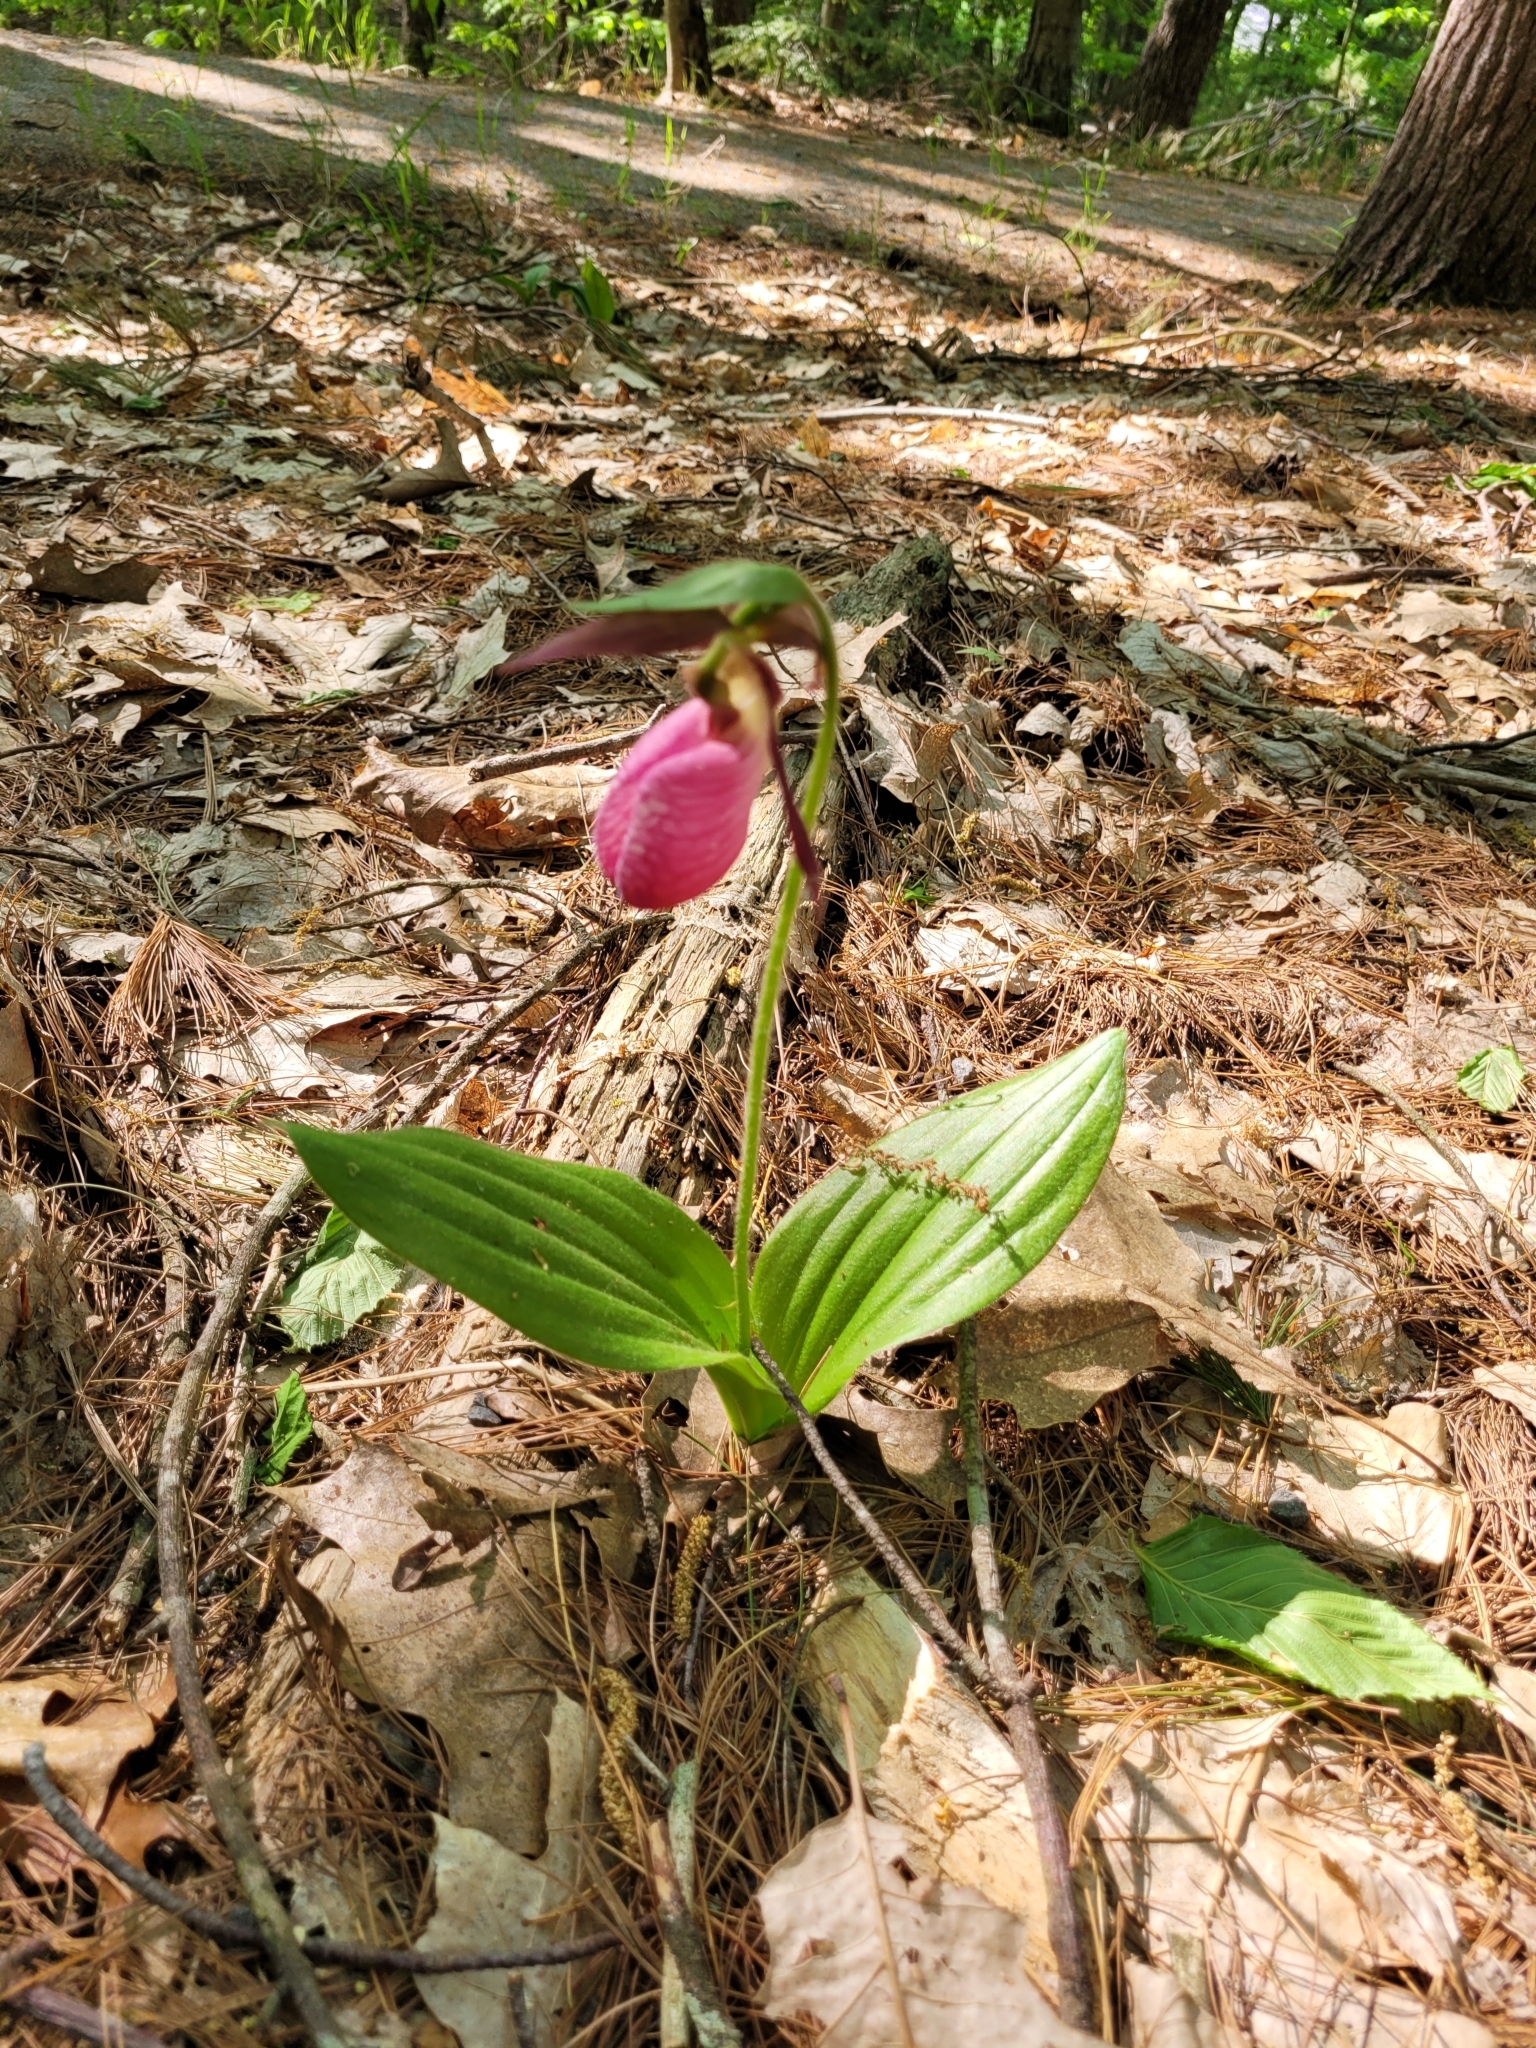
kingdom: Plantae
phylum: Tracheophyta
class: Liliopsida
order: Asparagales
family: Orchidaceae
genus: Cypripedium
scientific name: Cypripedium acaule
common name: Pink lady's-slipper
